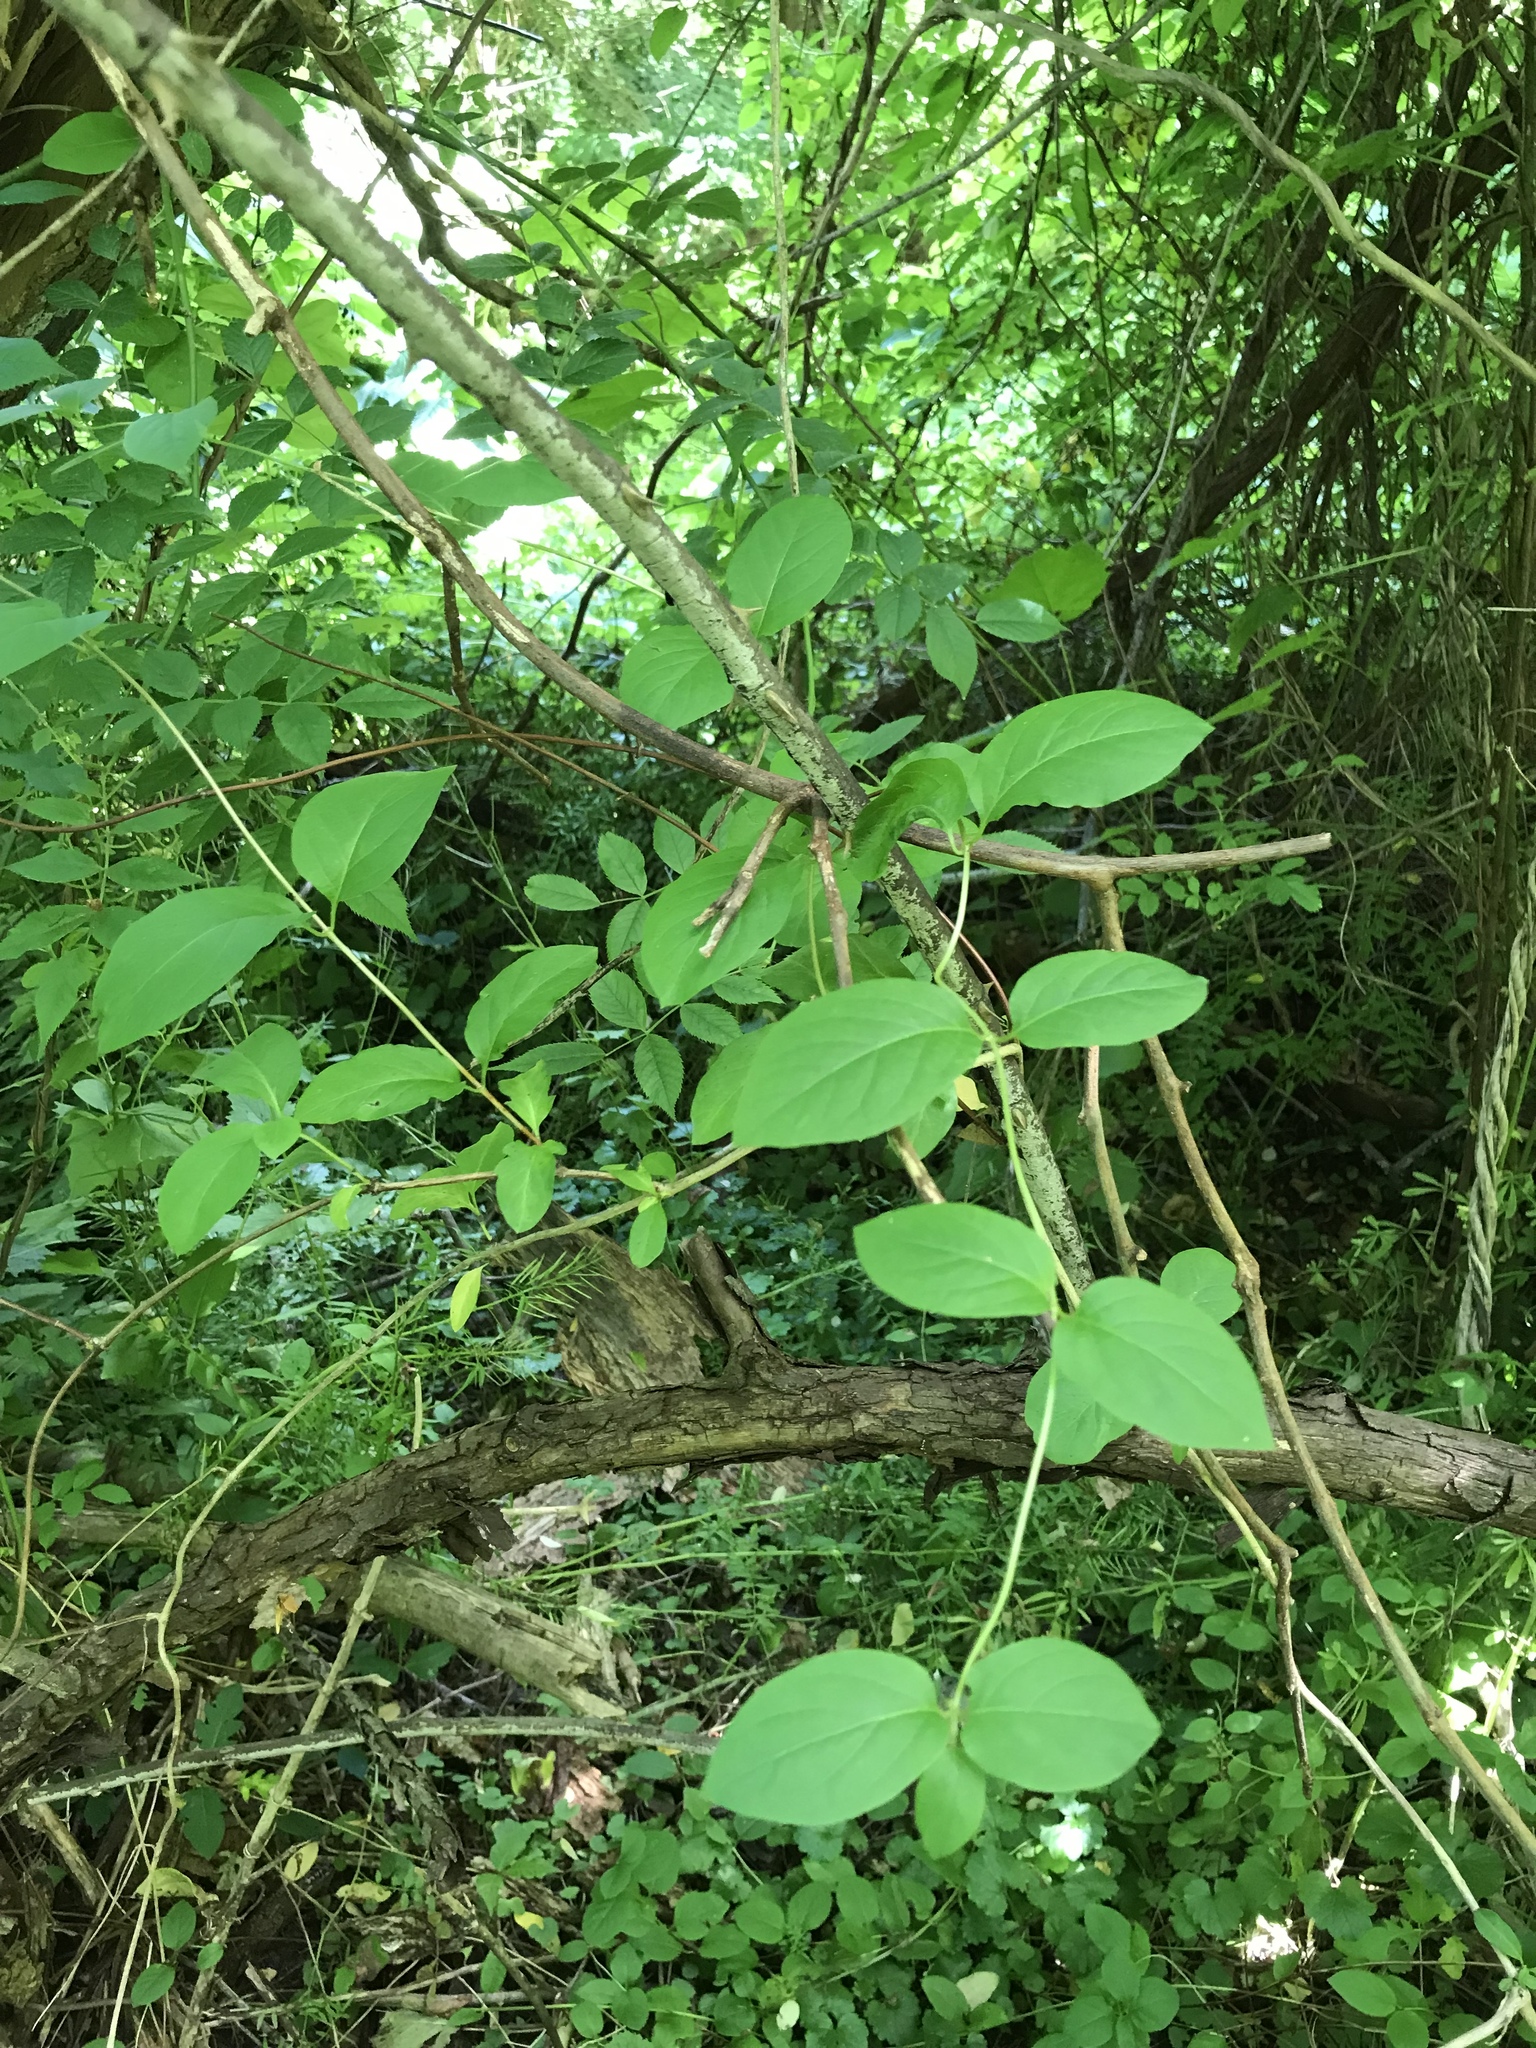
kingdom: Plantae
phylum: Tracheophyta
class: Magnoliopsida
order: Dipsacales
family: Caprifoliaceae
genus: Lonicera
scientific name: Lonicera japonica
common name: Japanese honeysuckle
